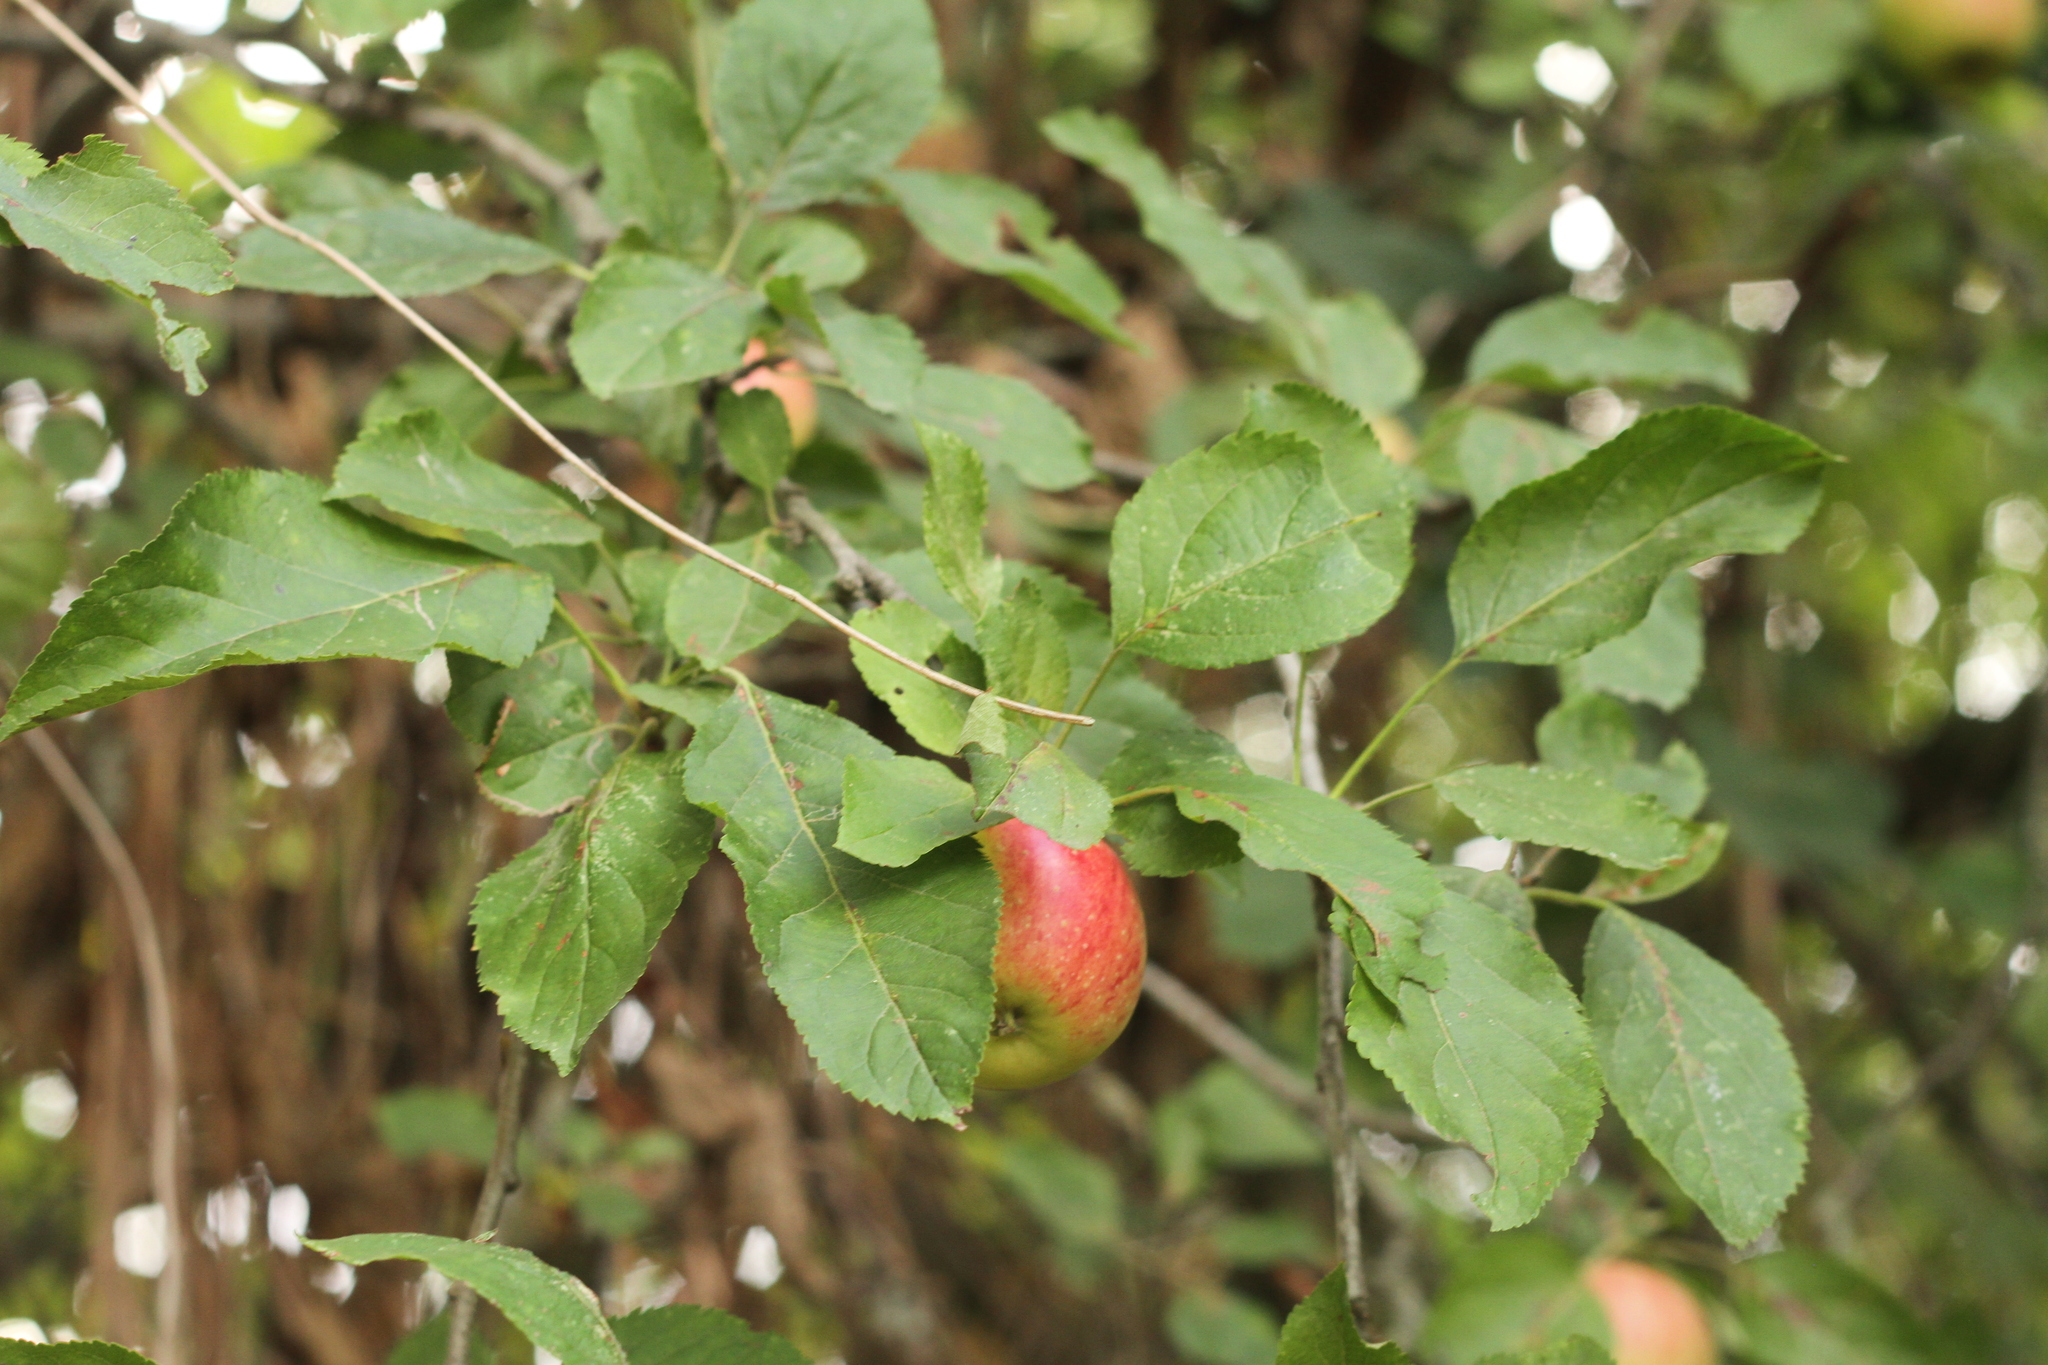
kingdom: Plantae
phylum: Tracheophyta
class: Magnoliopsida
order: Rosales
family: Rosaceae
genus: Malus
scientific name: Malus domestica
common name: Apple
